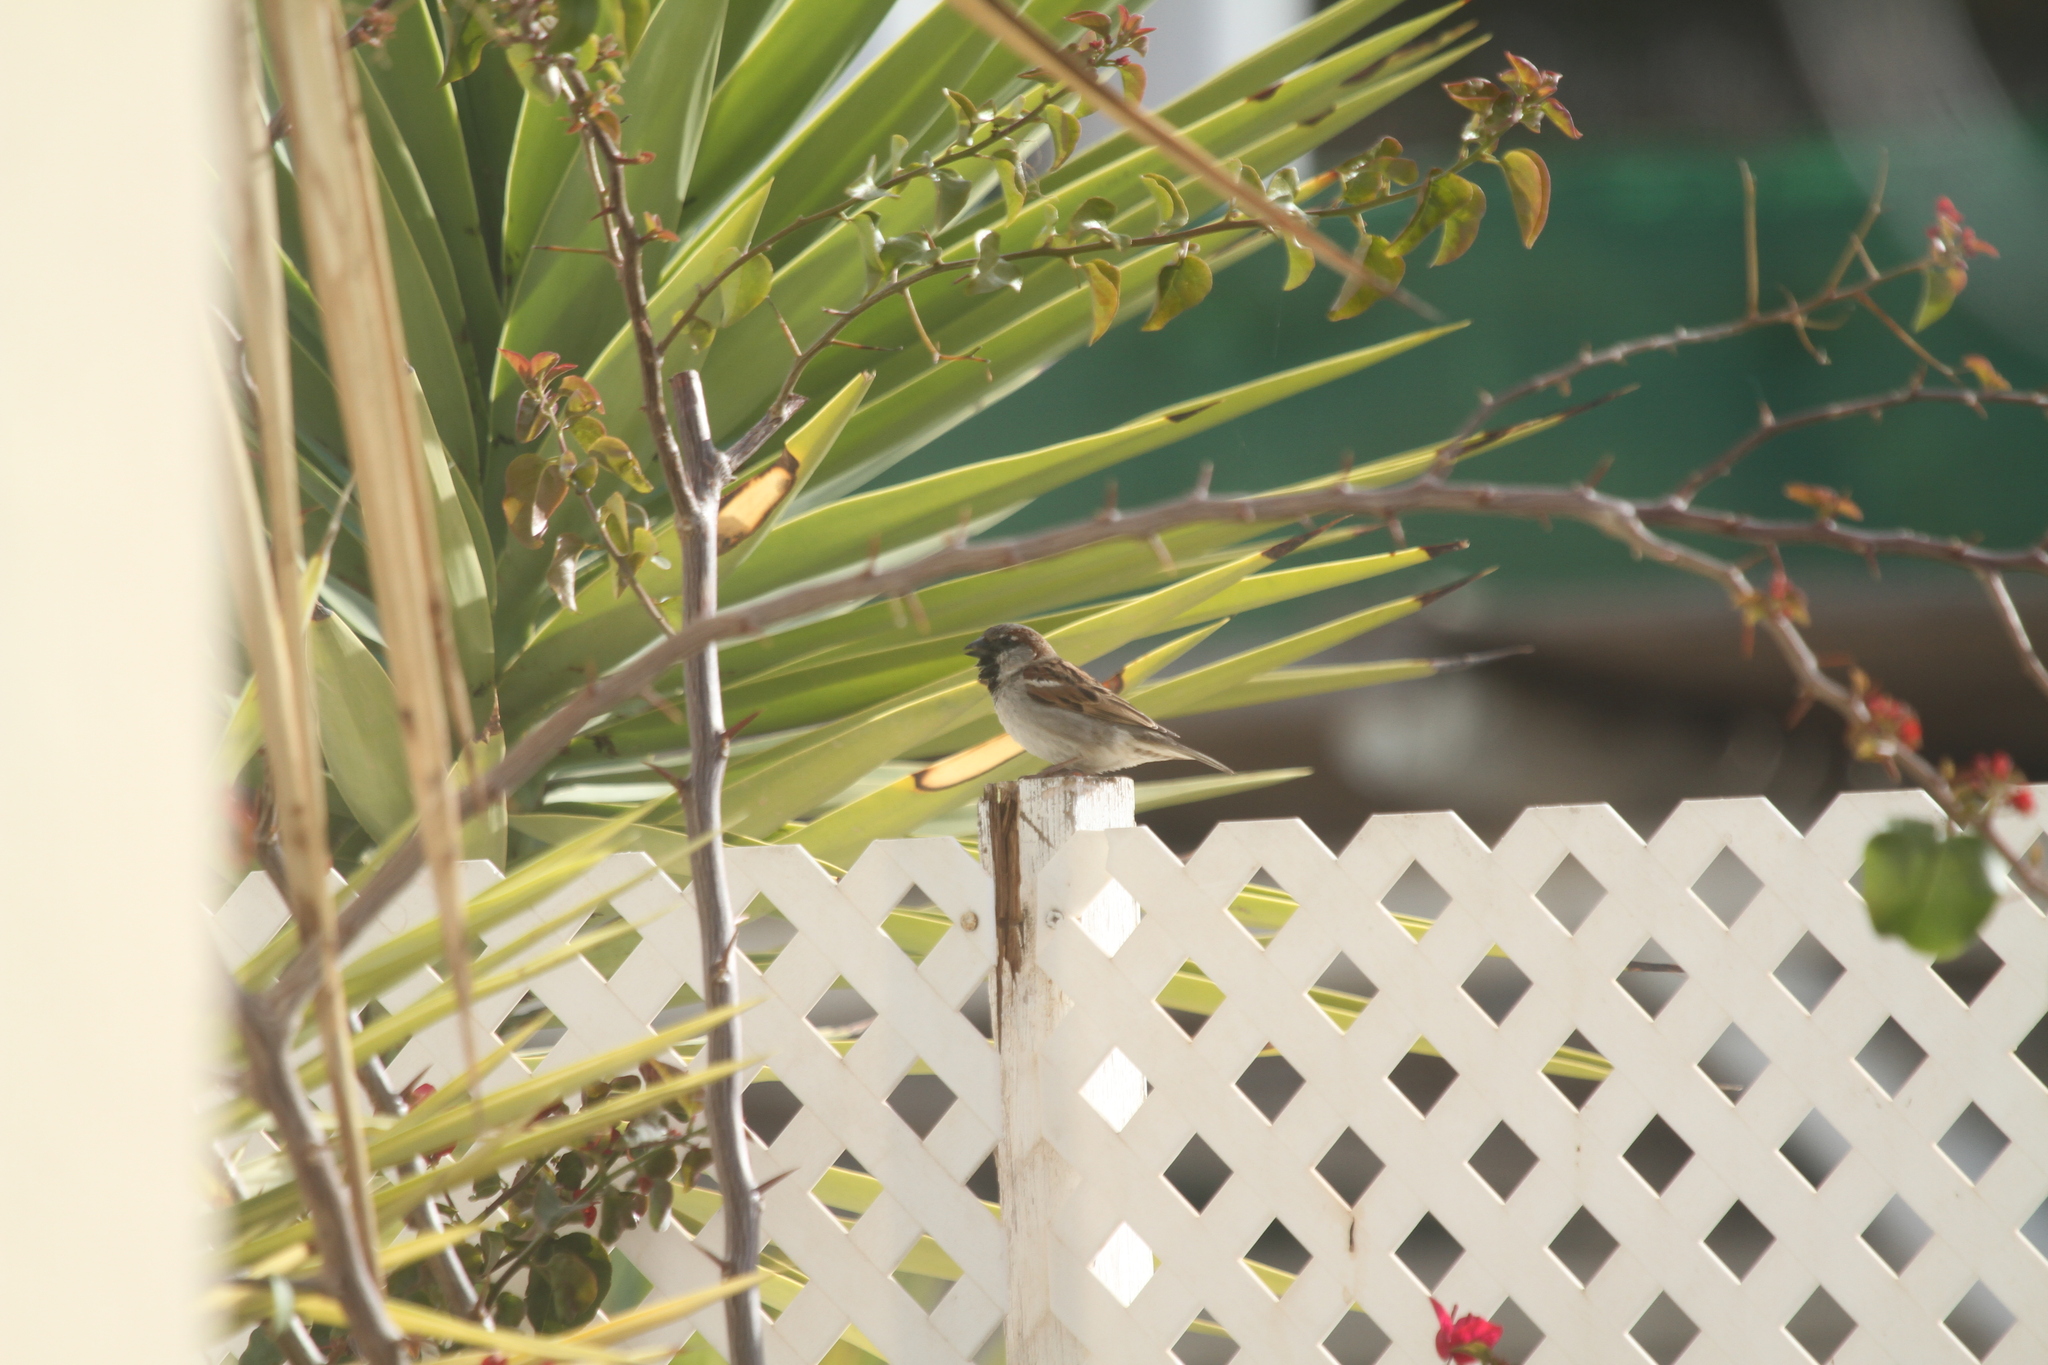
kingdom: Animalia
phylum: Chordata
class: Aves
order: Passeriformes
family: Passeridae
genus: Passer
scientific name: Passer domesticus
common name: House sparrow
